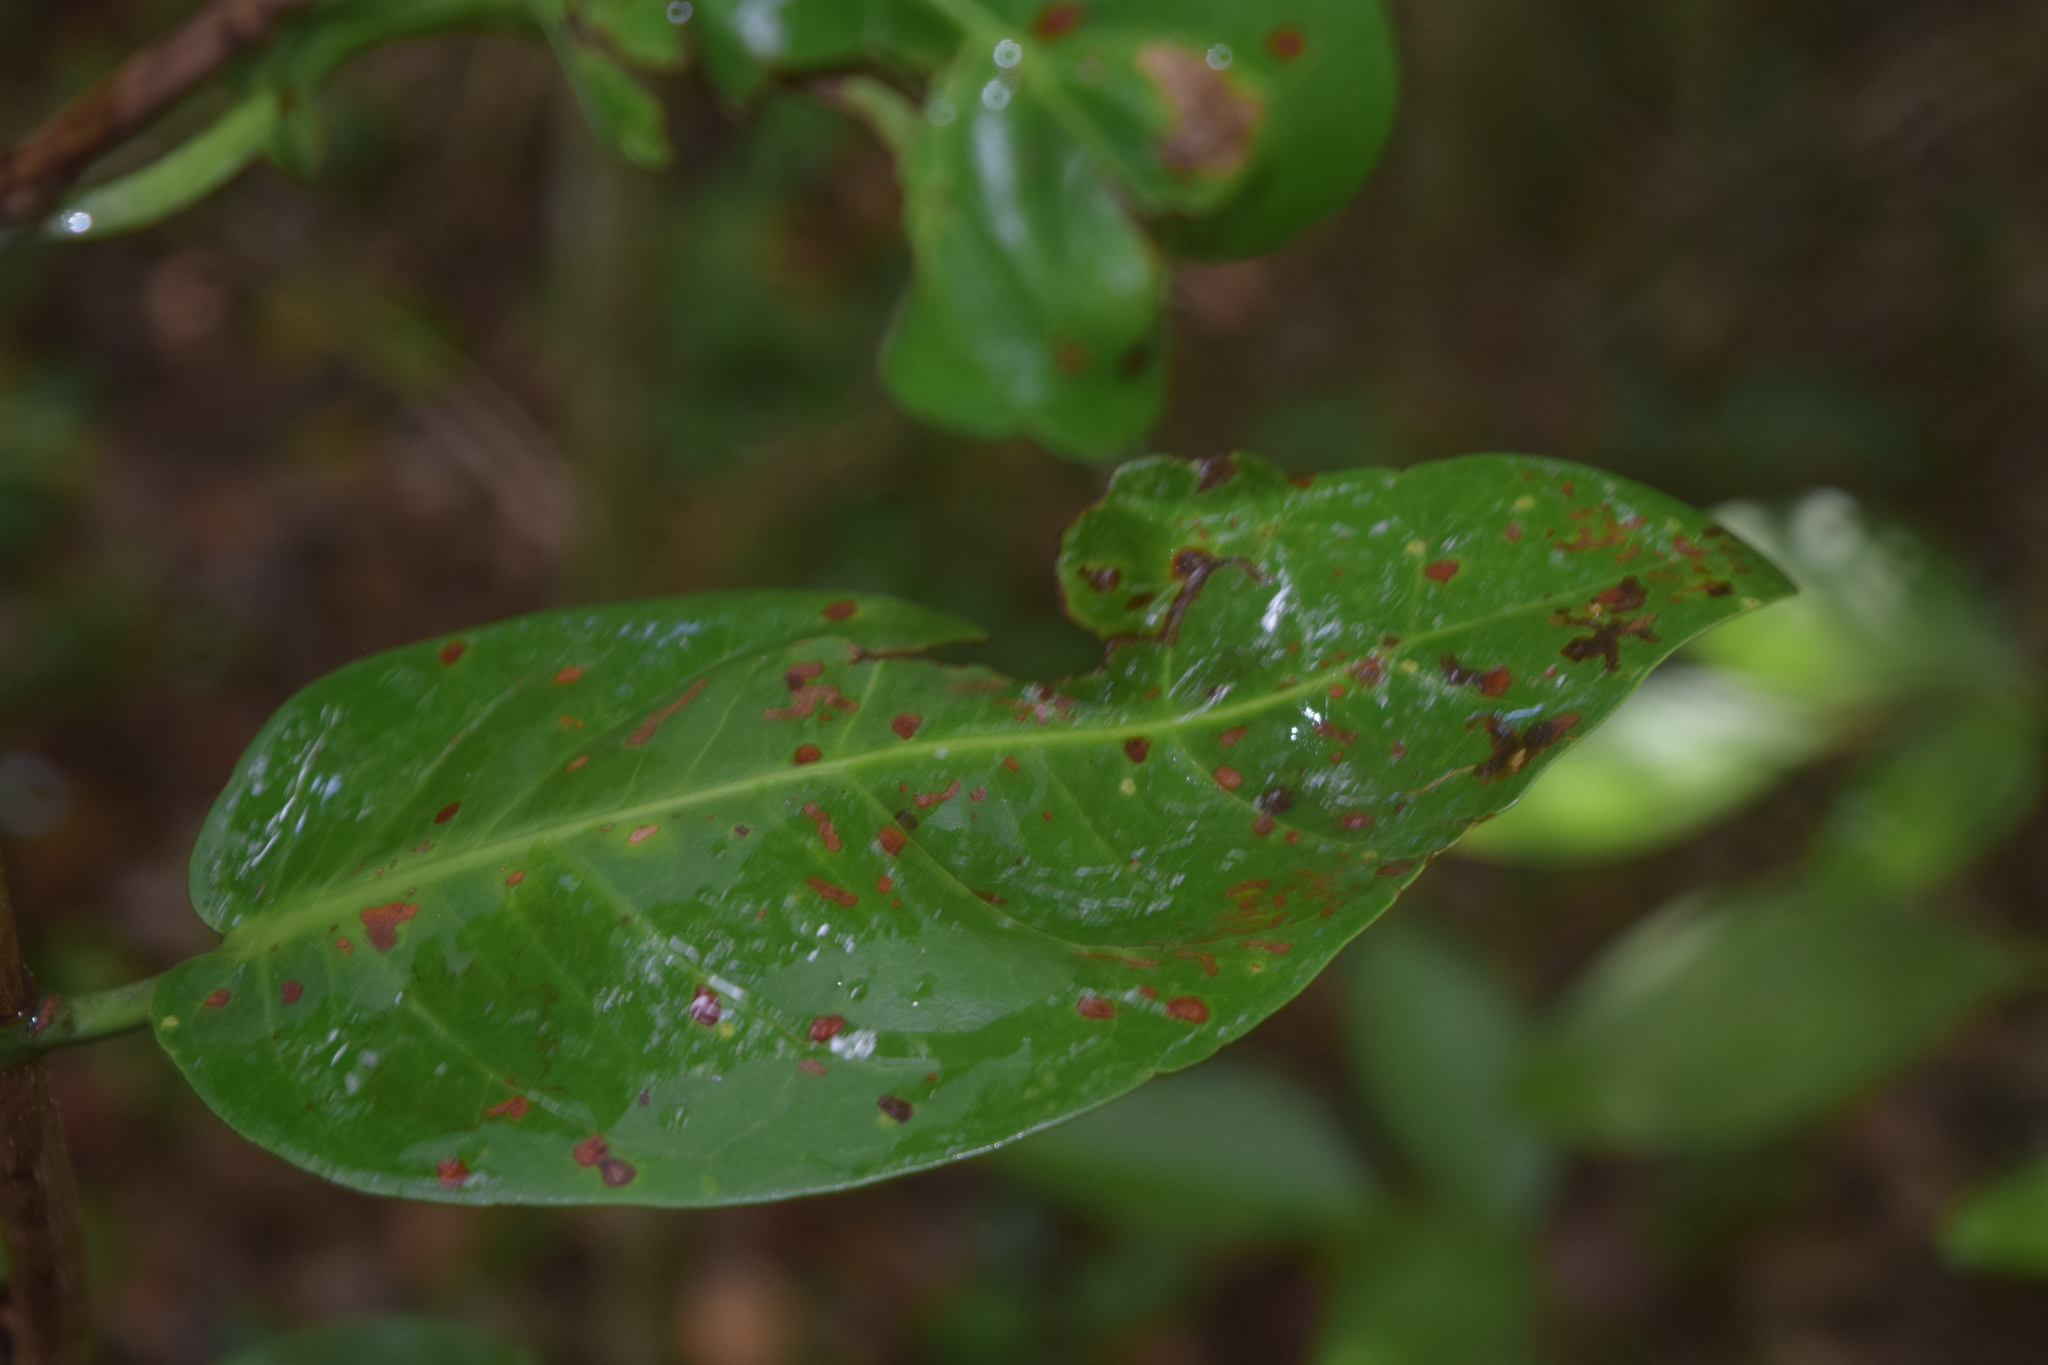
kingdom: Plantae
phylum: Tracheophyta
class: Magnoliopsida
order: Caryophyllales
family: Polygonaceae
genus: Coccoloba
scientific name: Coccoloba diversifolia
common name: Pigeon-plum
